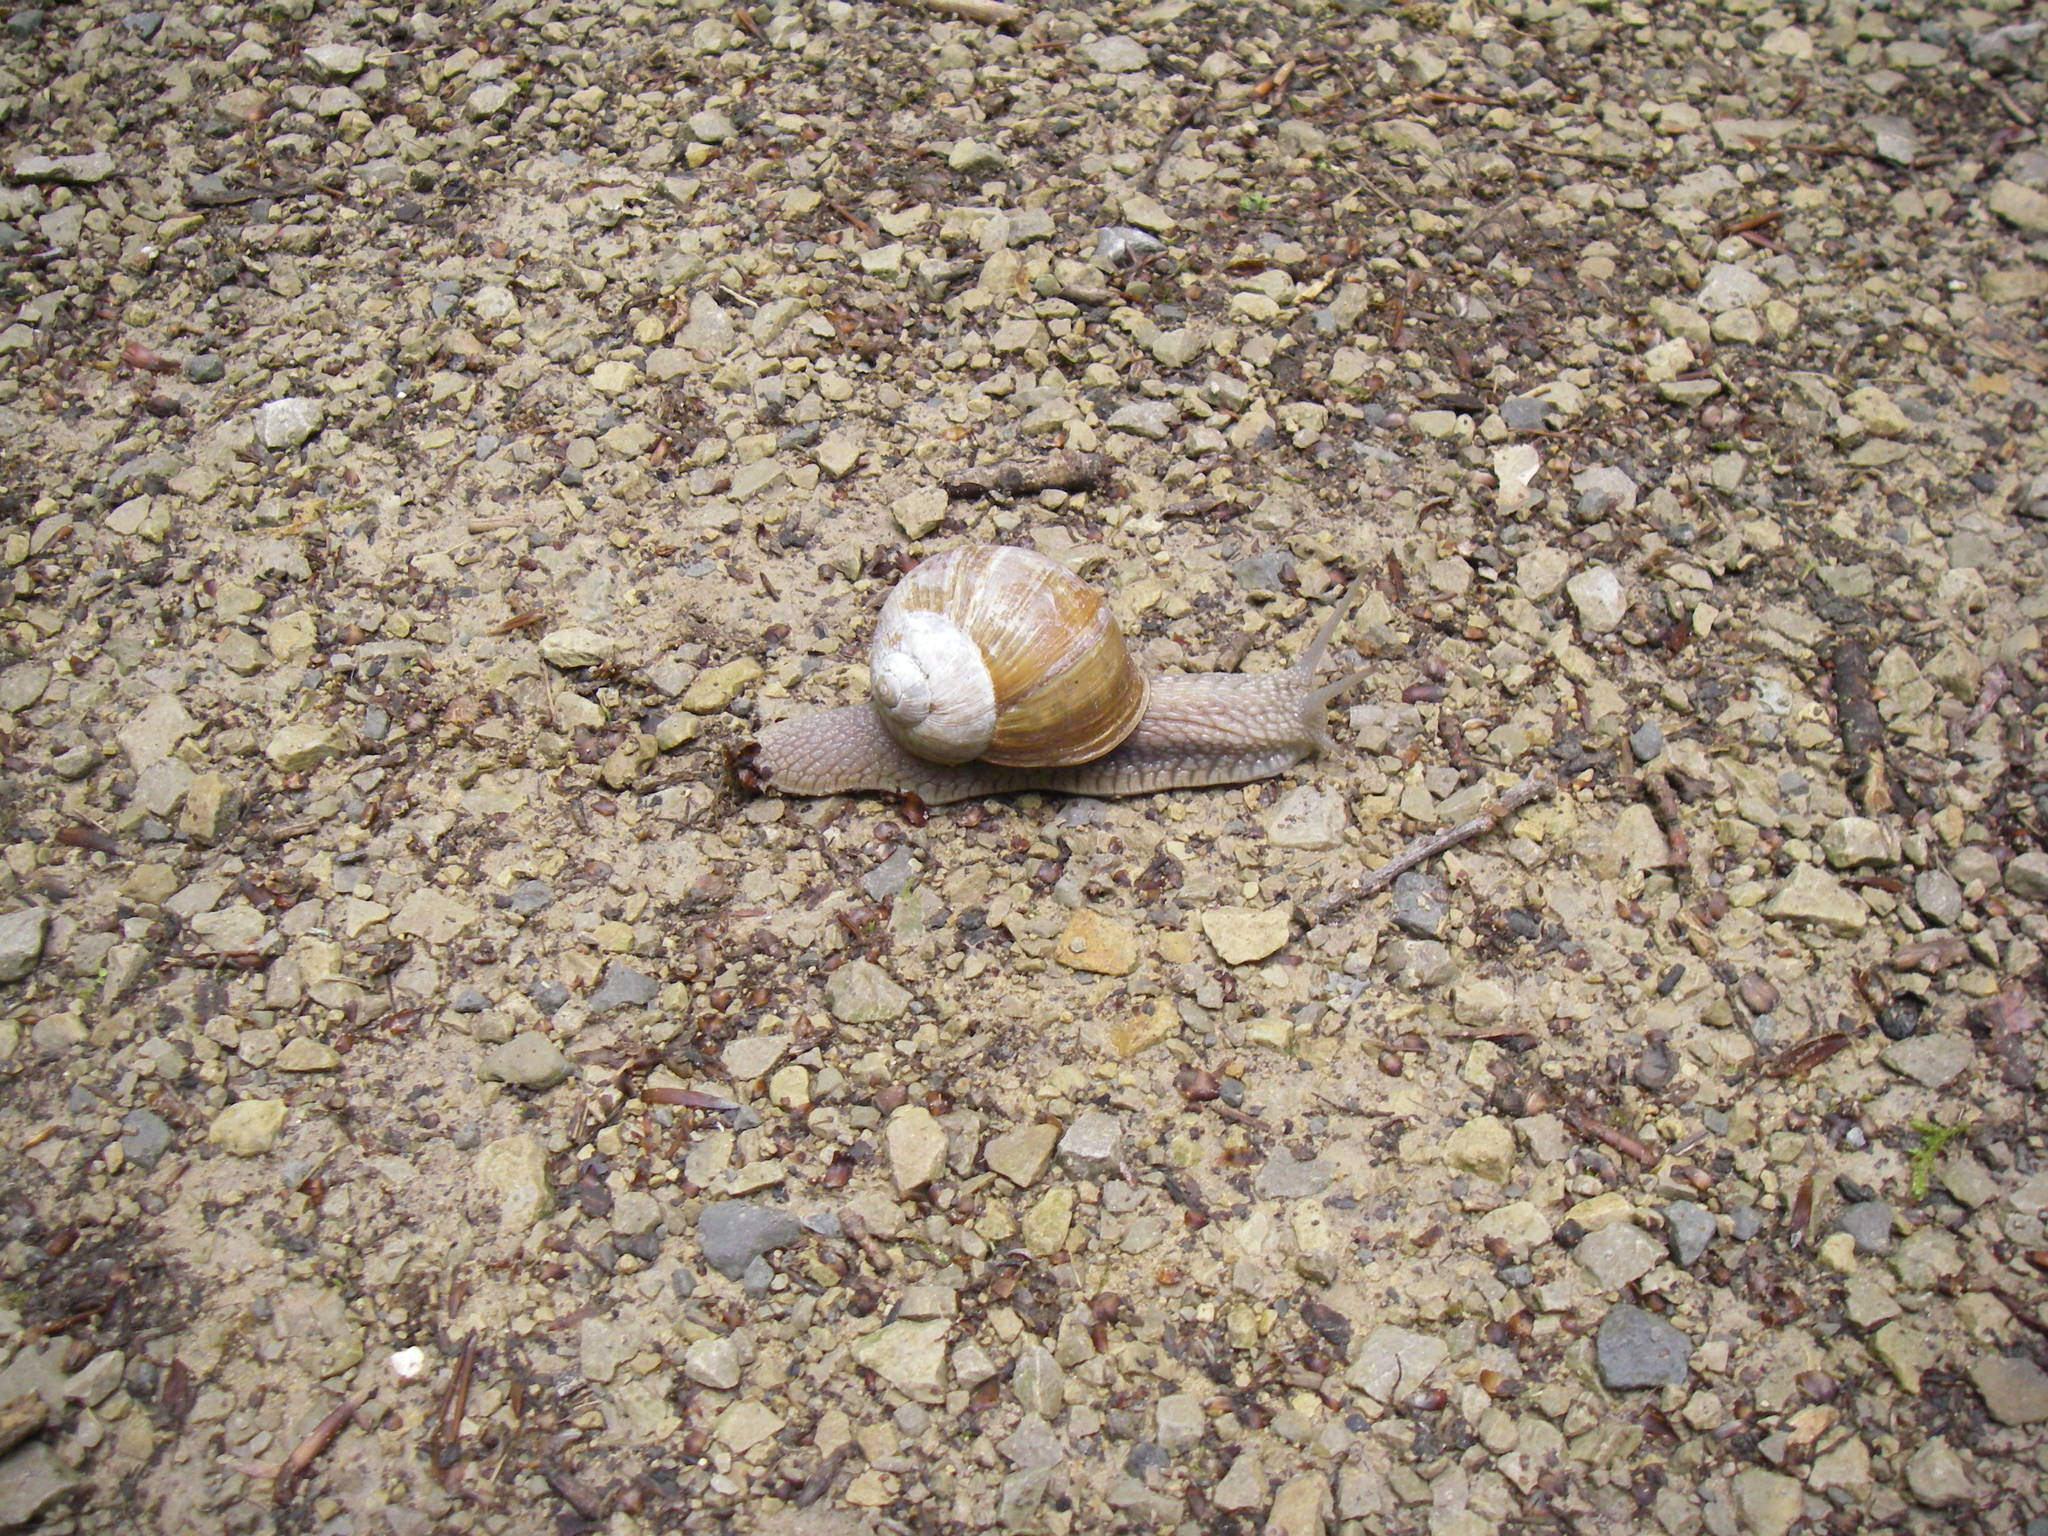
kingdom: Animalia
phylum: Mollusca
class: Gastropoda
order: Stylommatophora
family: Helicidae
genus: Helix
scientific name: Helix pomatia
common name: Roman snail
